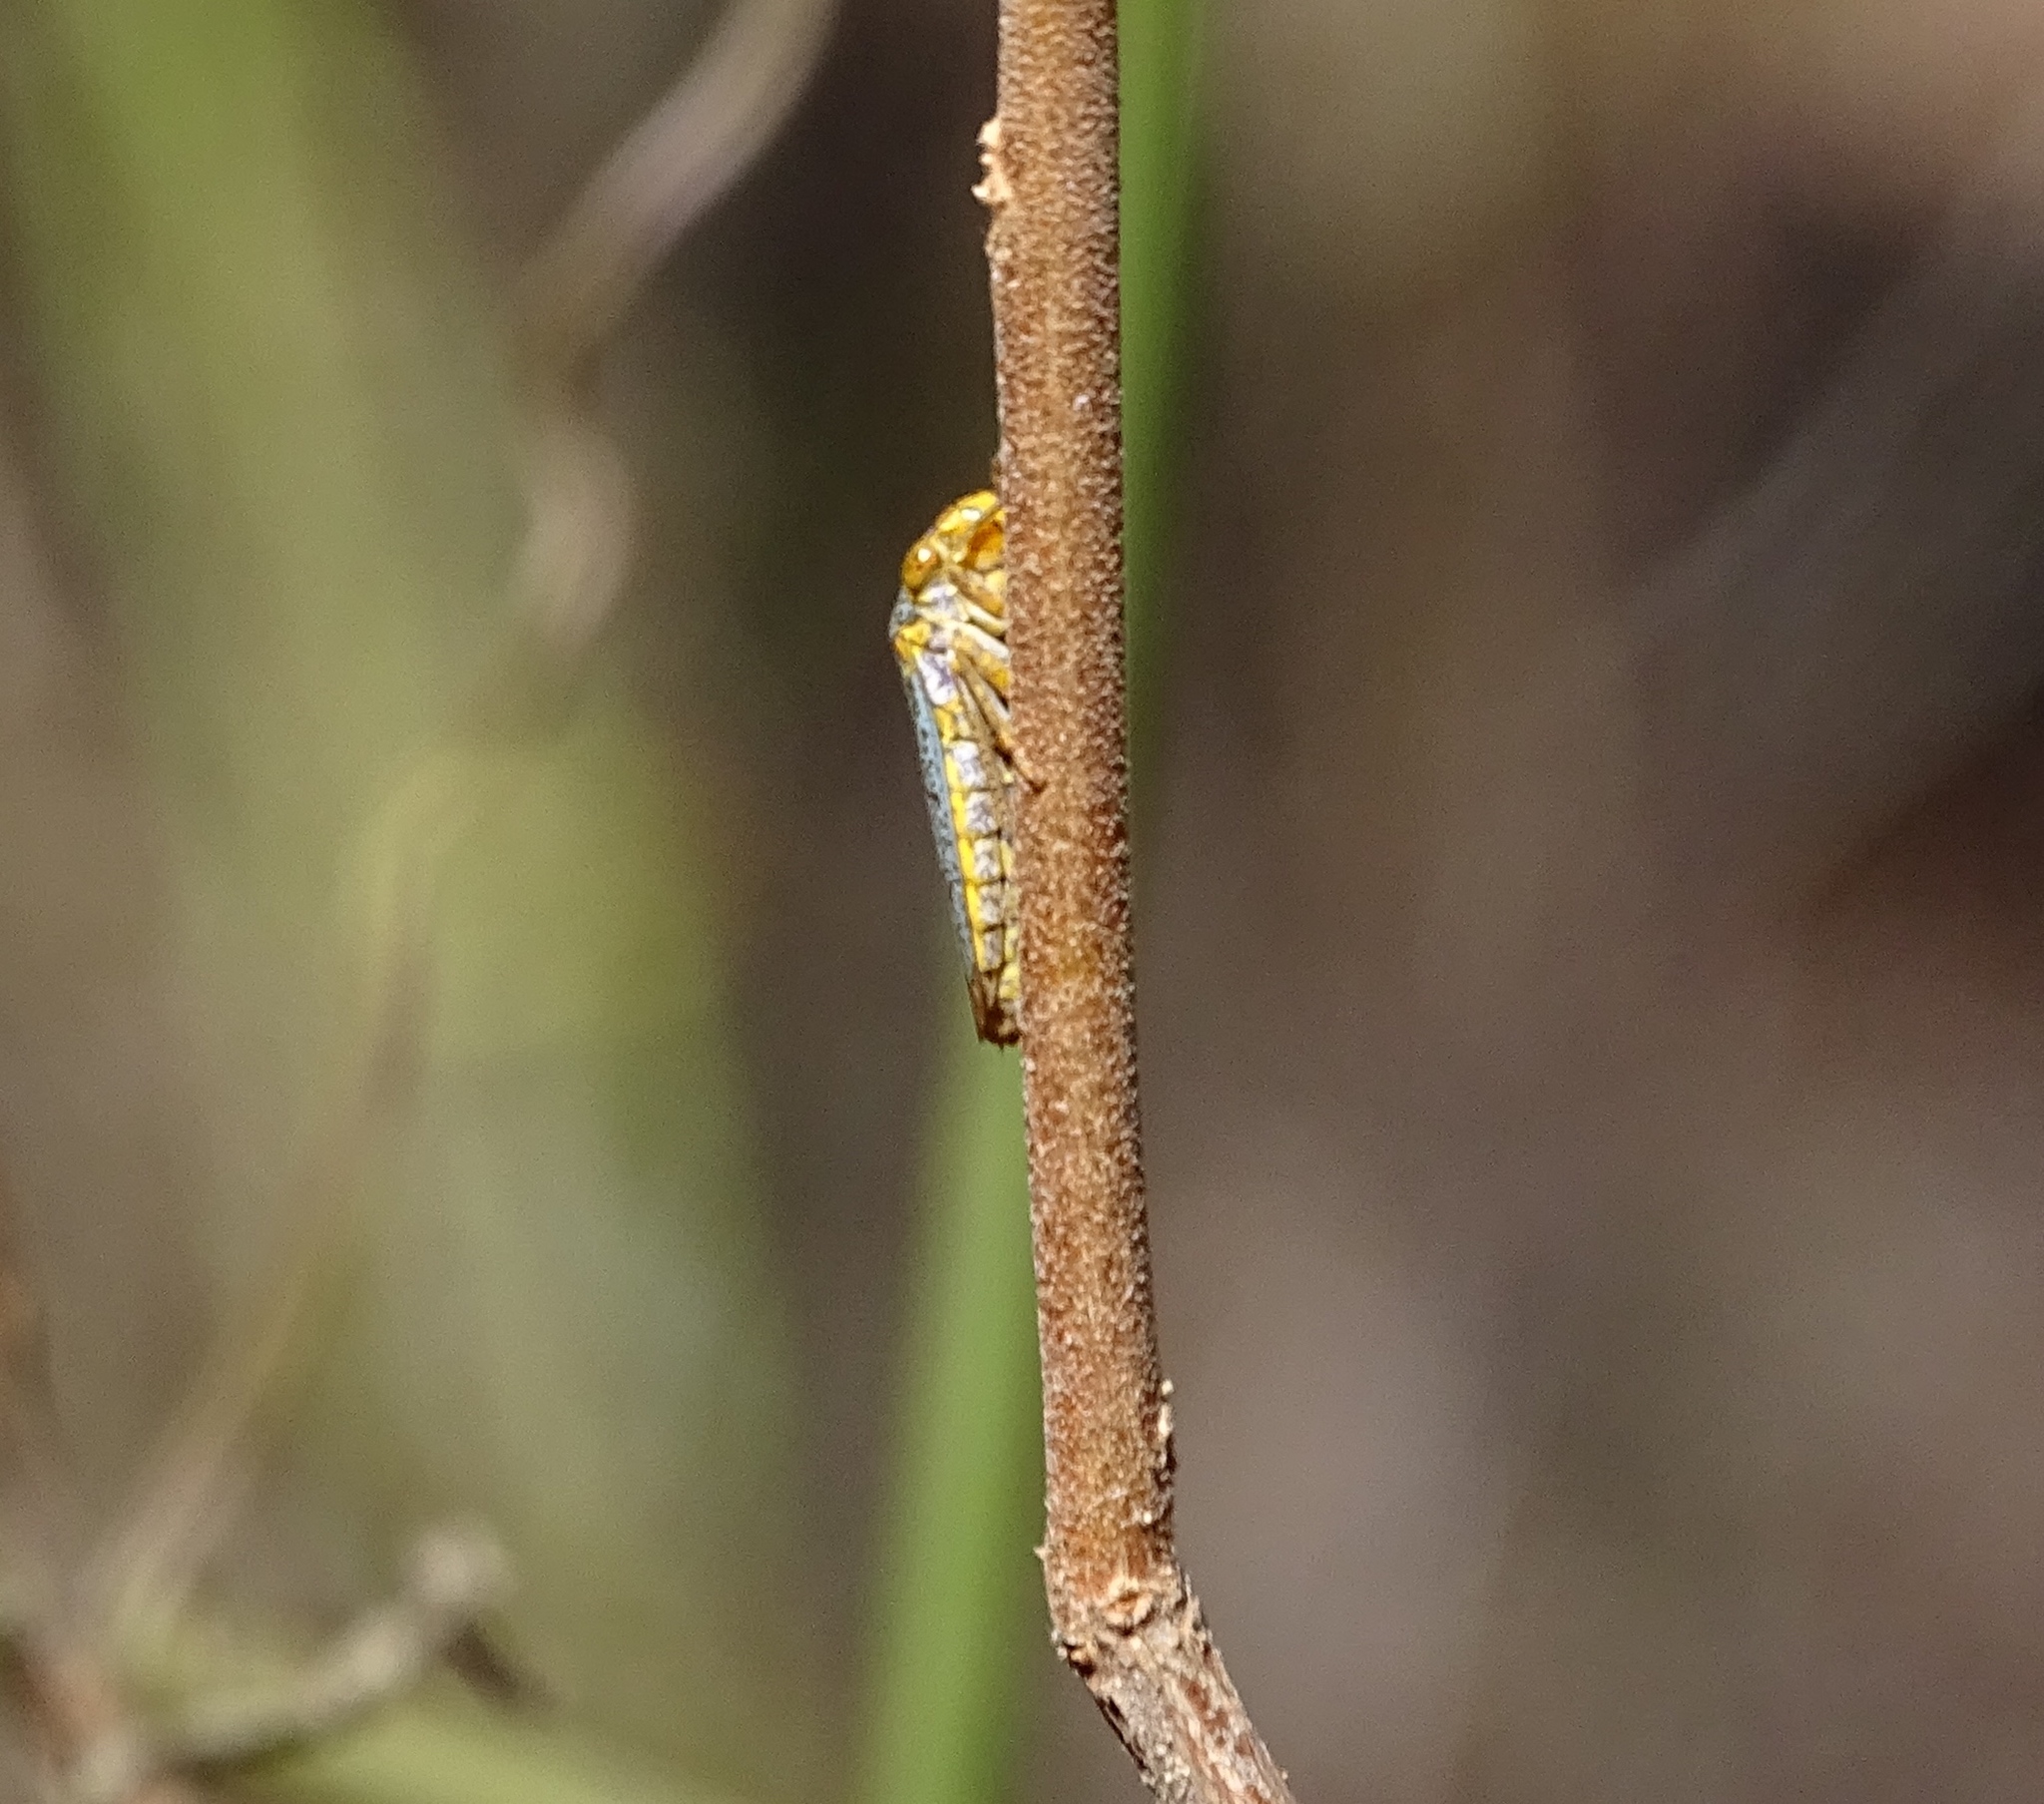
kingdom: Animalia
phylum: Arthropoda
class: Insecta
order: Hemiptera
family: Cicadellidae
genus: Oncometopia
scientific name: Oncometopia orbona
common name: Broad-headed sharpshooter
